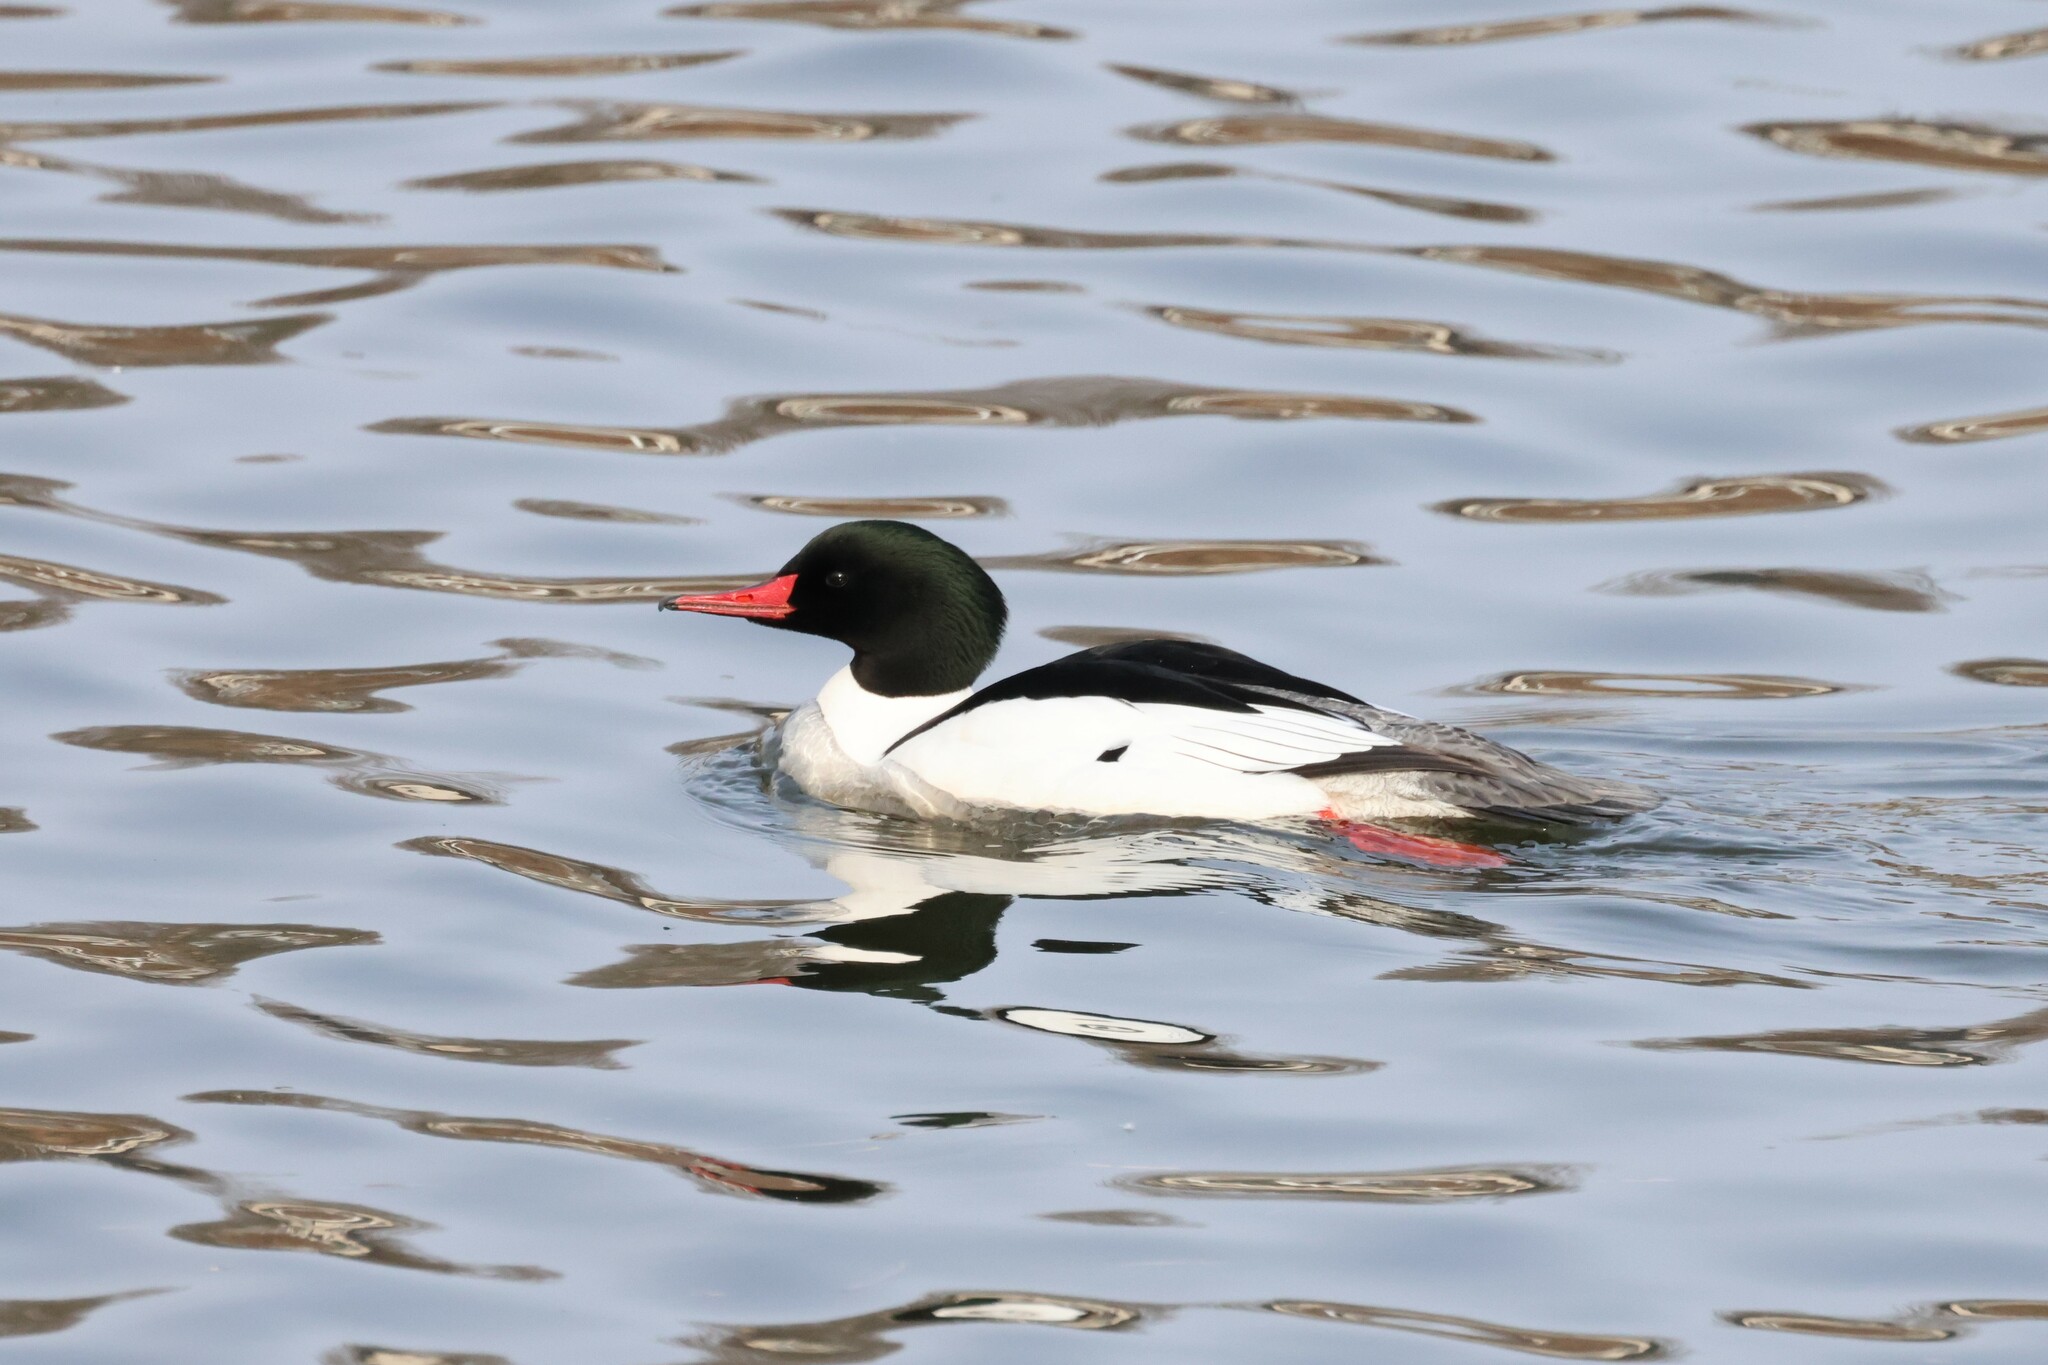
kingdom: Animalia
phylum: Chordata
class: Aves
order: Anseriformes
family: Anatidae
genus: Mergus
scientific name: Mergus merganser
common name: Common merganser
